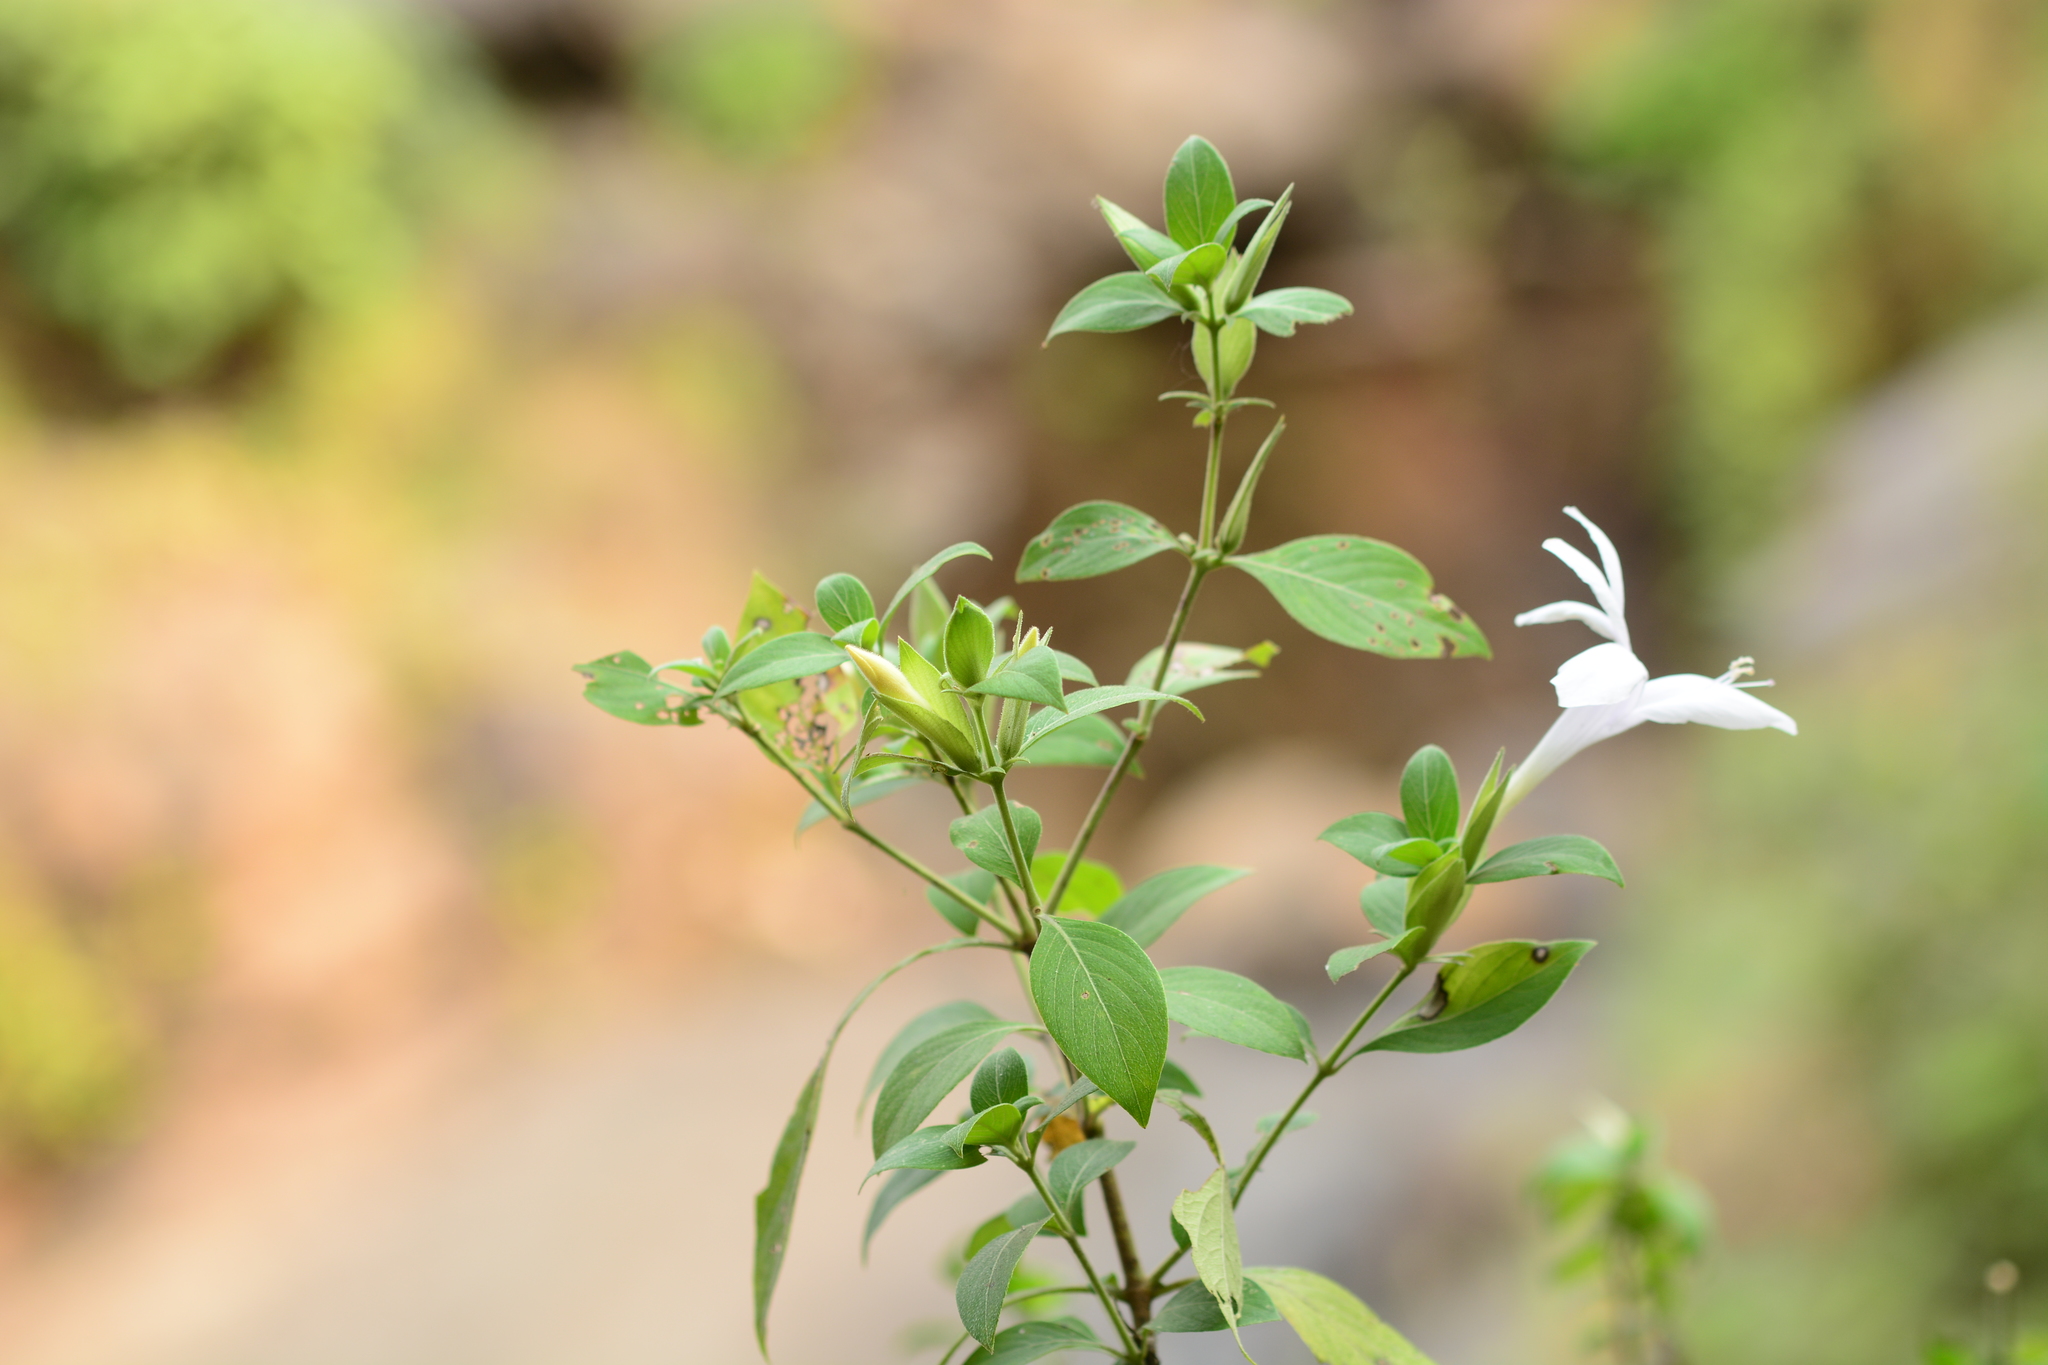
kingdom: Plantae
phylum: Tracheophyta
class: Magnoliopsida
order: Lamiales
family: Acanthaceae
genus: Barleria
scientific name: Barleria lawii
